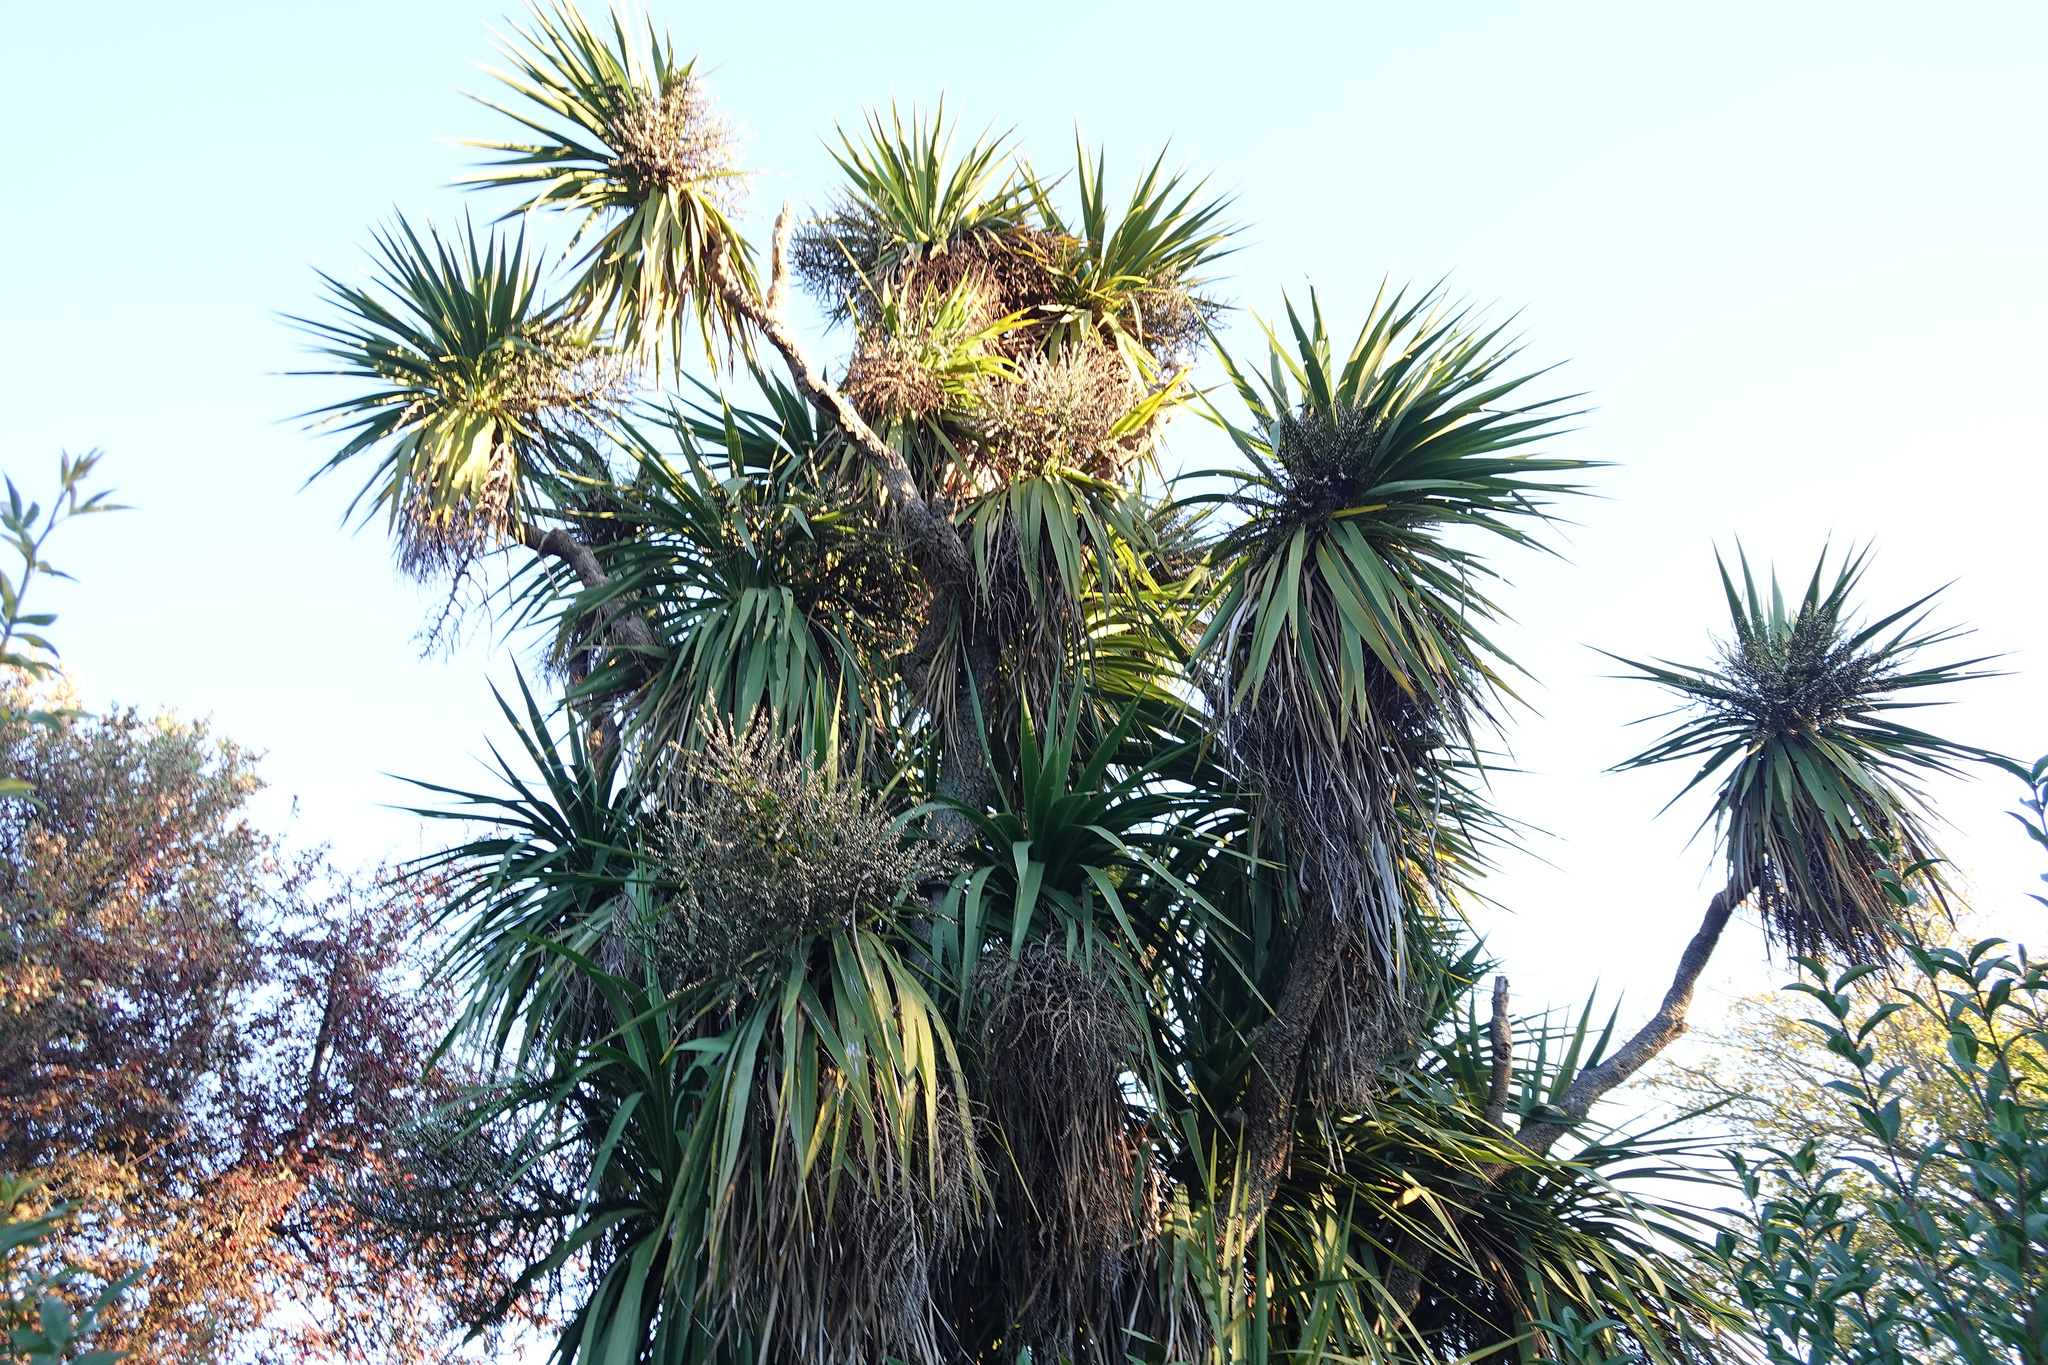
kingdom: Plantae
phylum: Tracheophyta
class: Liliopsida
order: Asparagales
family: Asparagaceae
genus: Cordyline
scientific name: Cordyline australis
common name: Cabbage-palm
